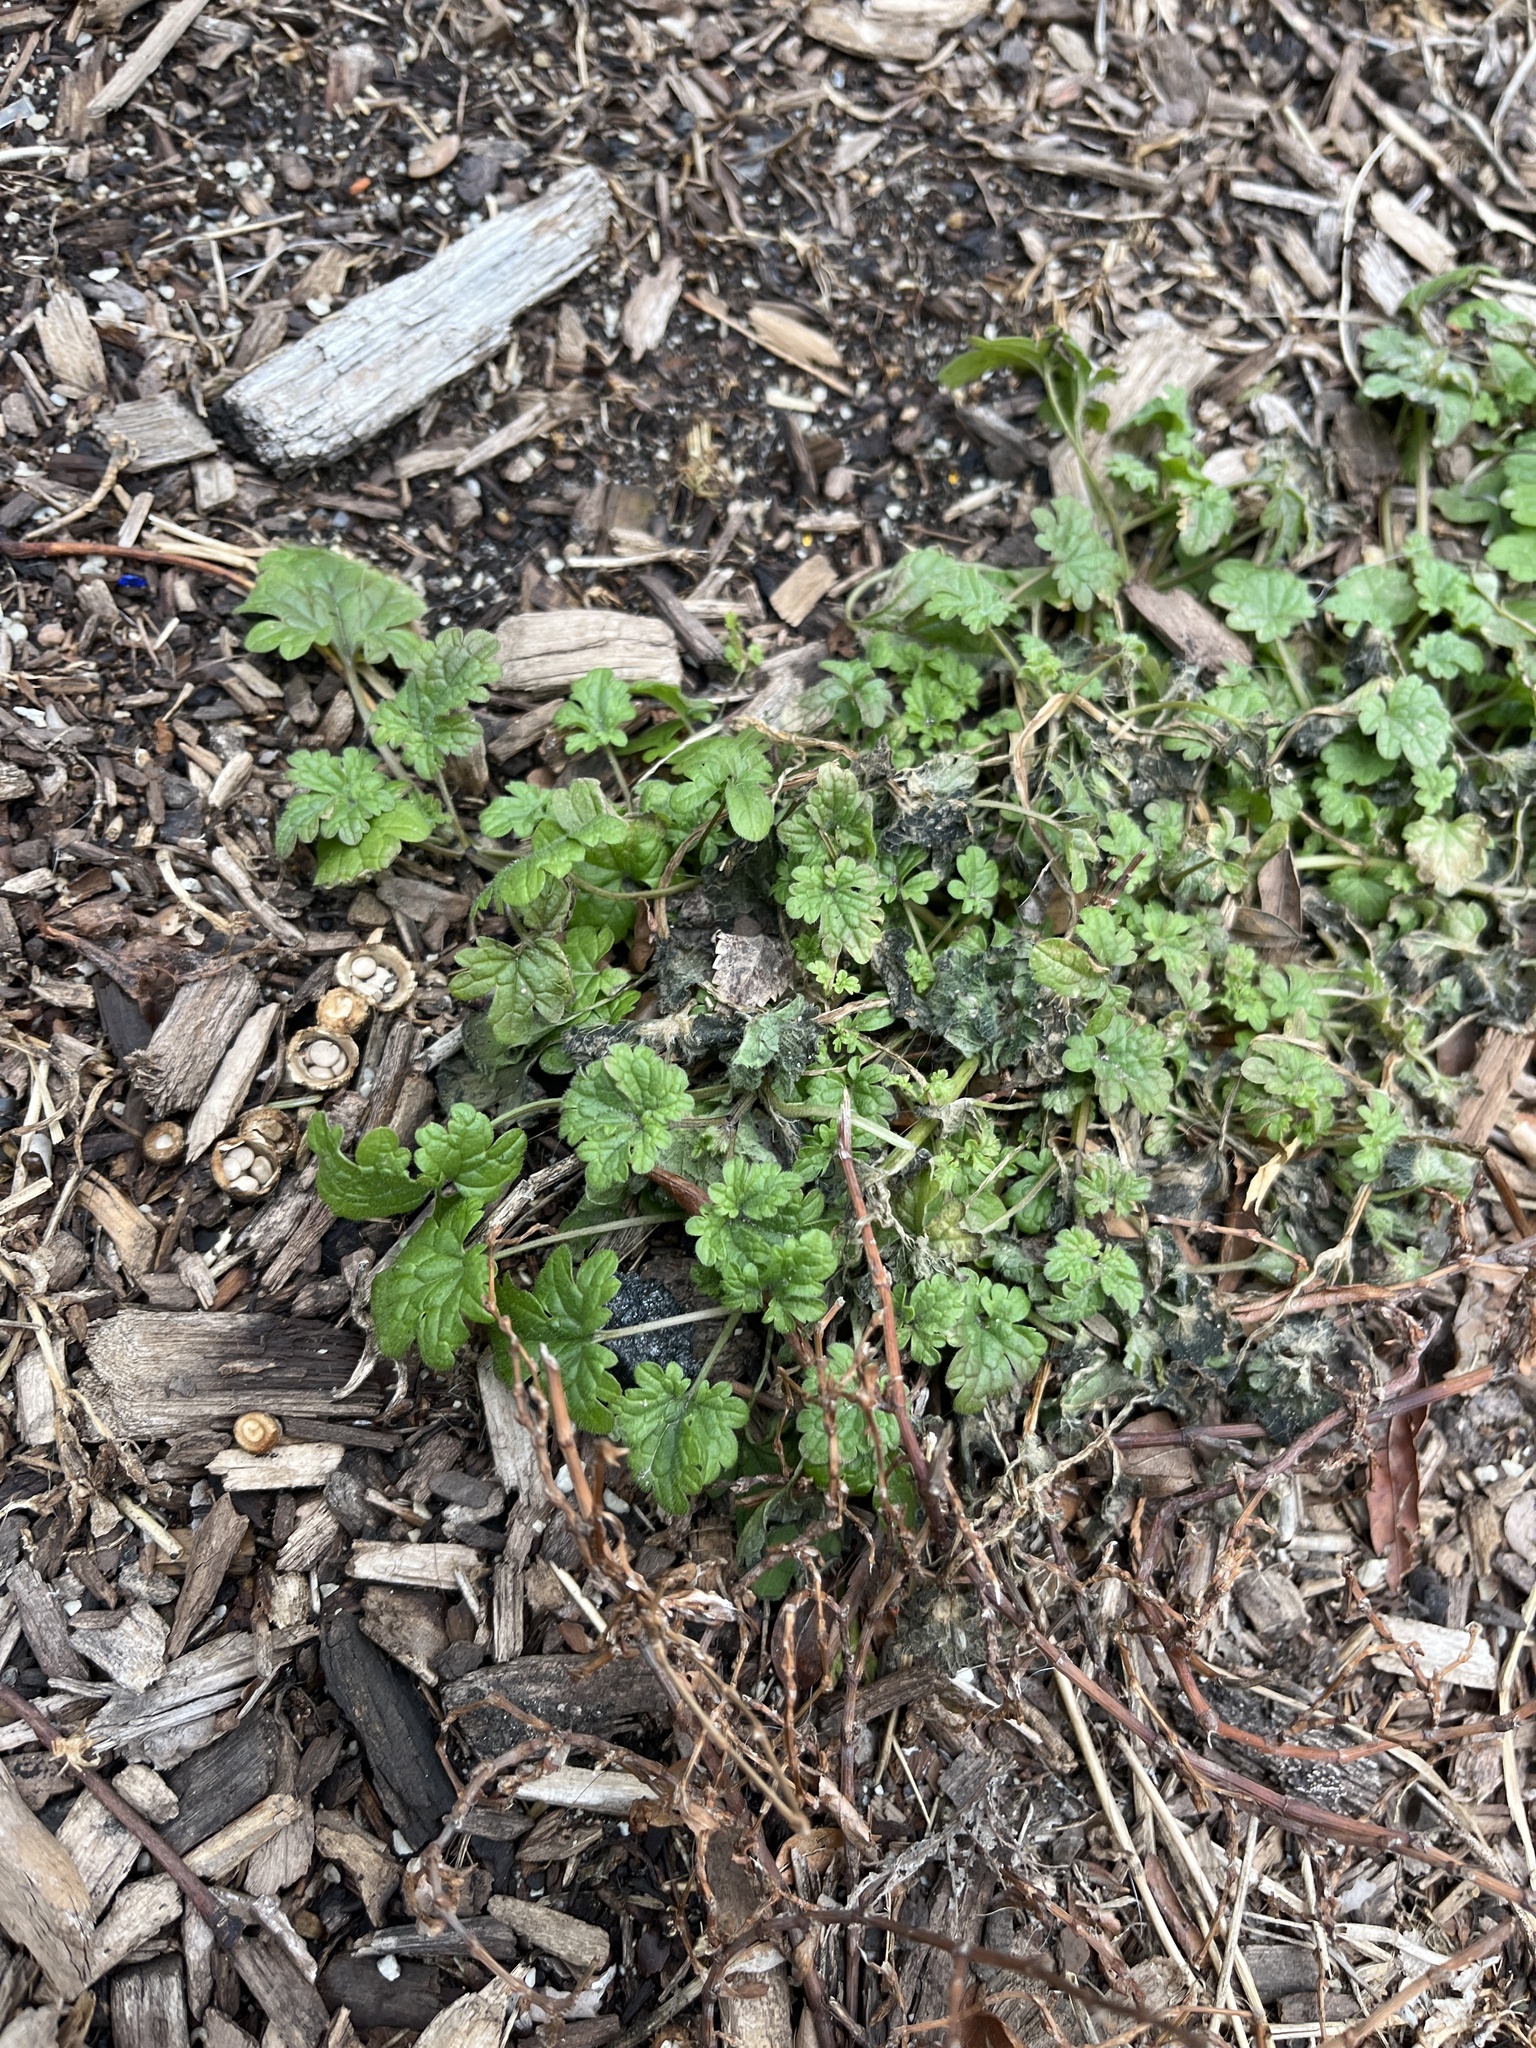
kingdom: Plantae
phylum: Tracheophyta
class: Magnoliopsida
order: Lamiales
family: Lamiaceae
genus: Lamium
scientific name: Lamium amplexicaule
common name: Henbit dead-nettle
